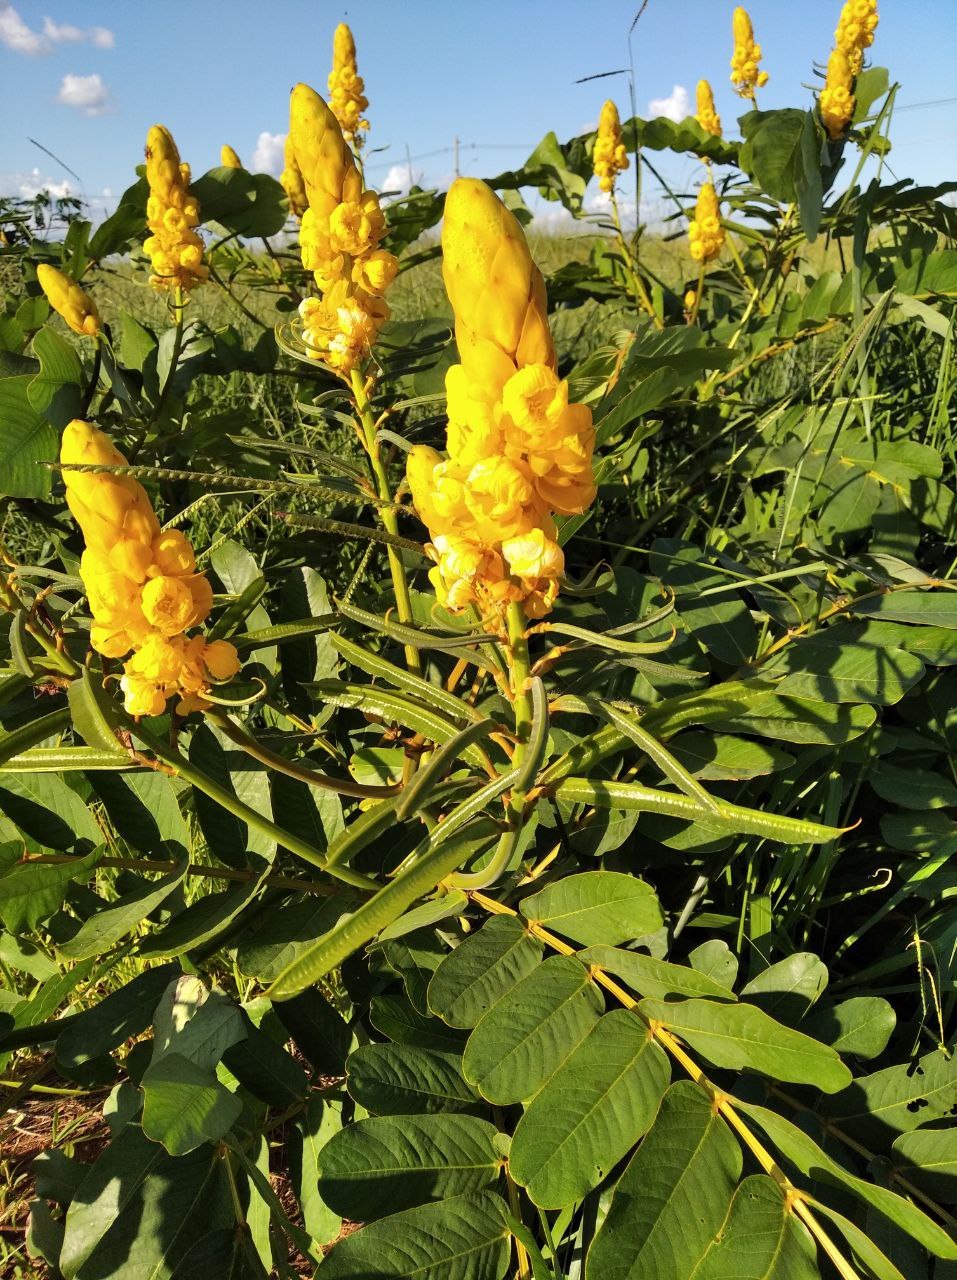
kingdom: Plantae
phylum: Tracheophyta
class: Magnoliopsida
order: Fabales
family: Fabaceae
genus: Senna
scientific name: Senna alata
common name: Emperor's candlesticks
